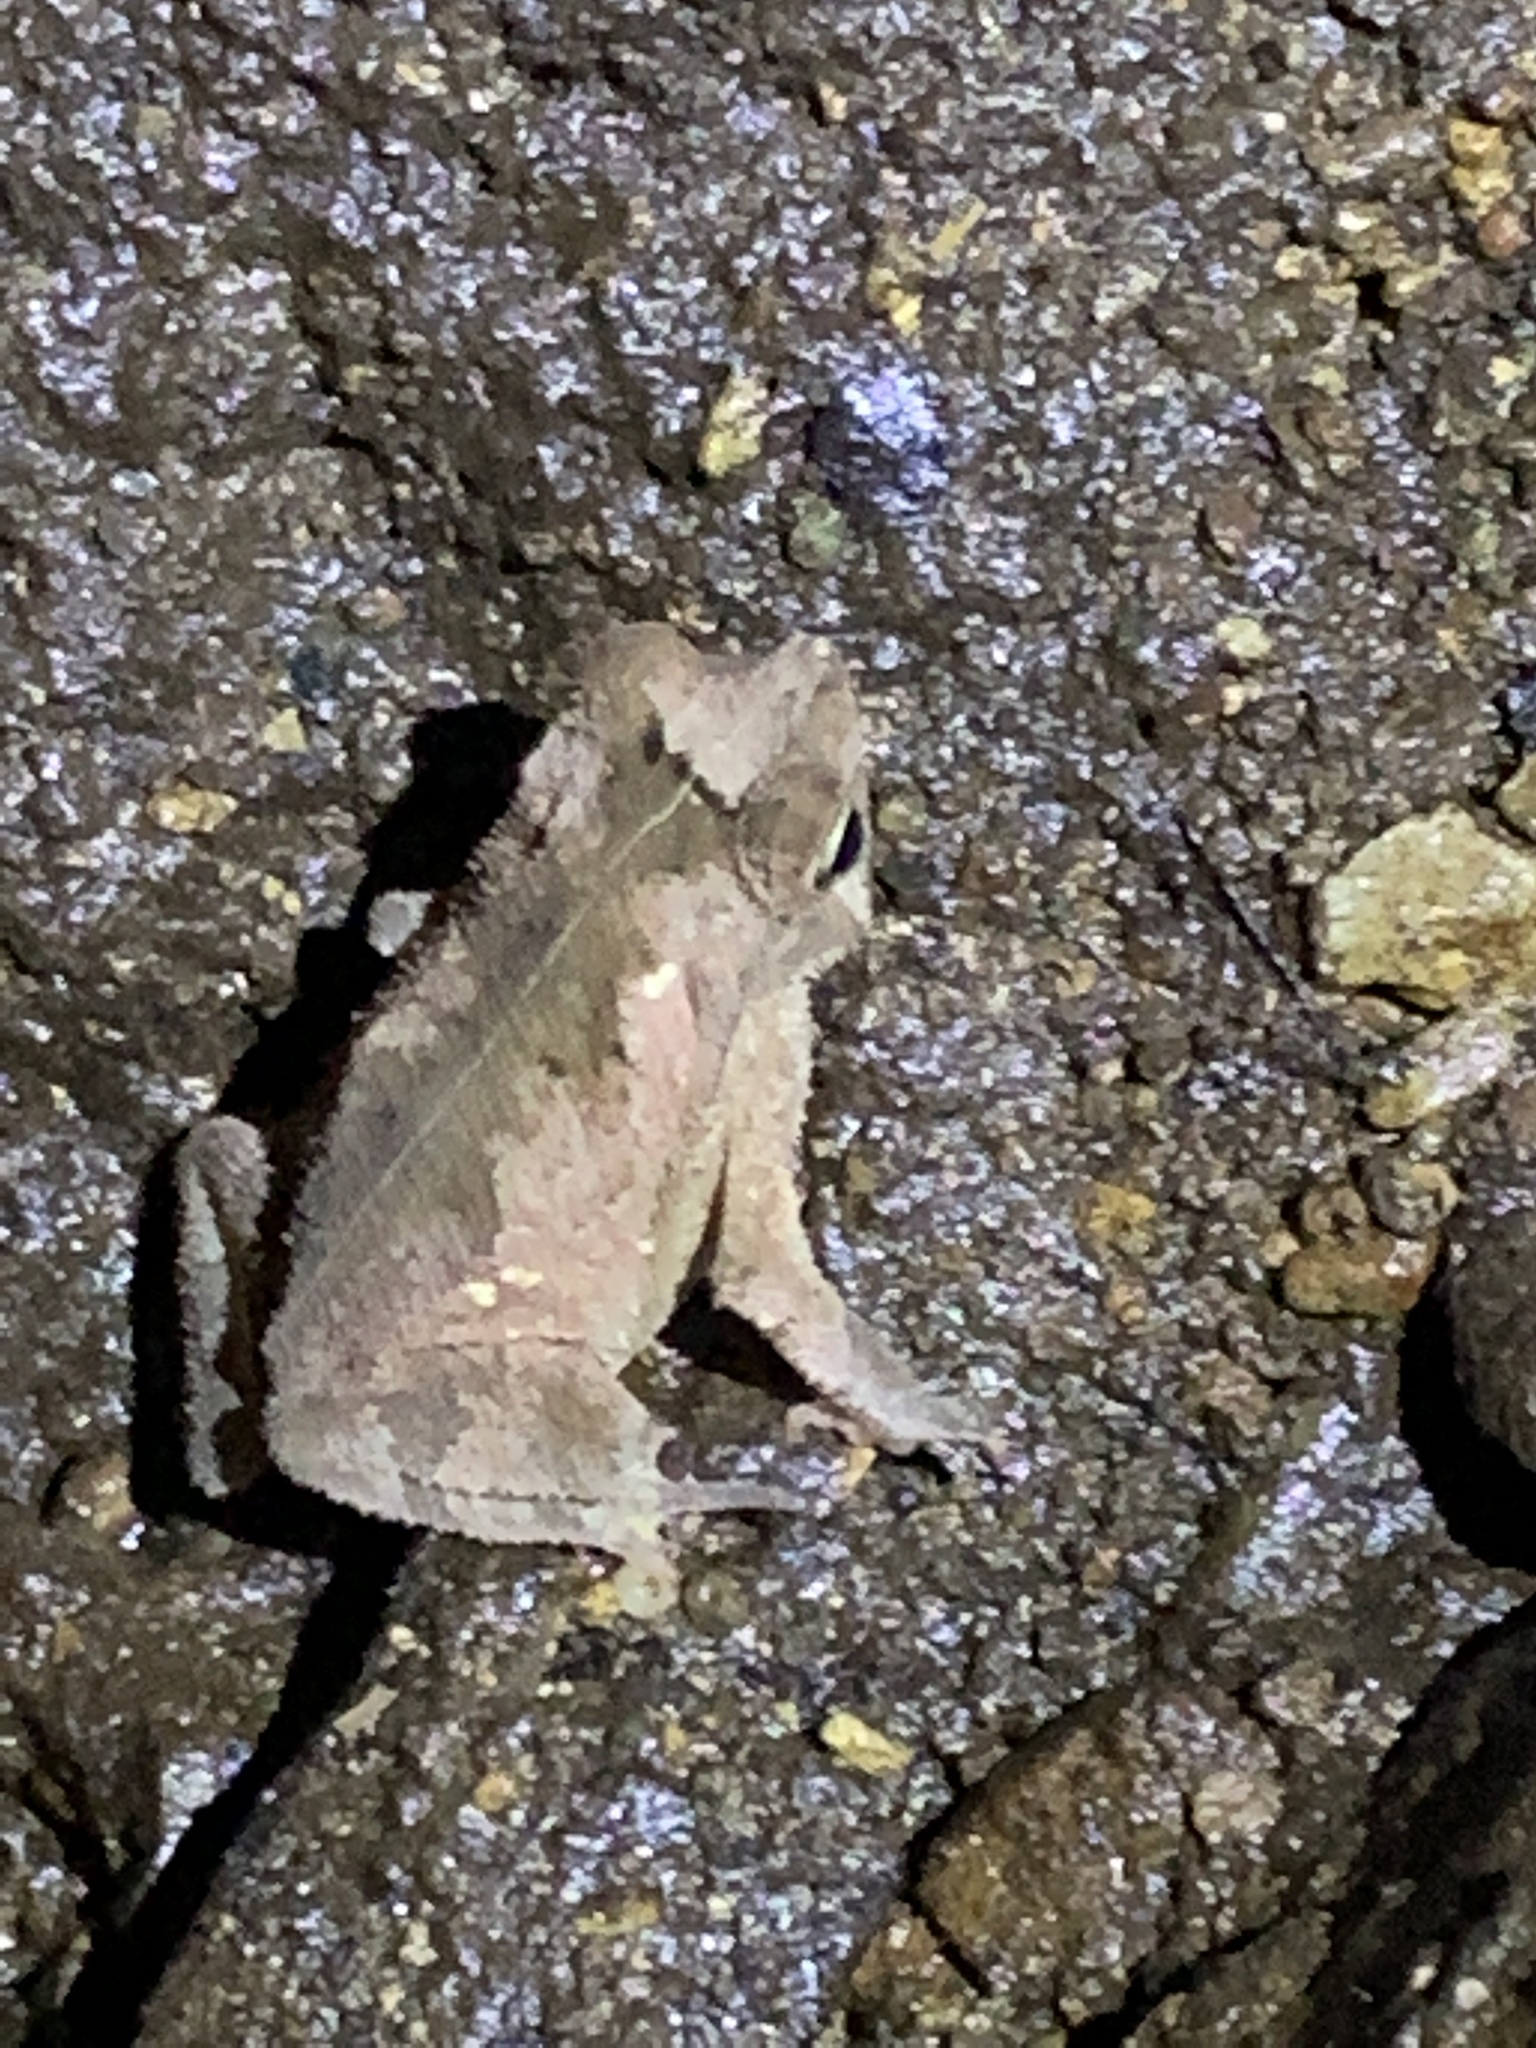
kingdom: Animalia
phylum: Chordata
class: Amphibia
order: Anura
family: Bufonidae
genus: Rhinella
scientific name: Rhinella alata
